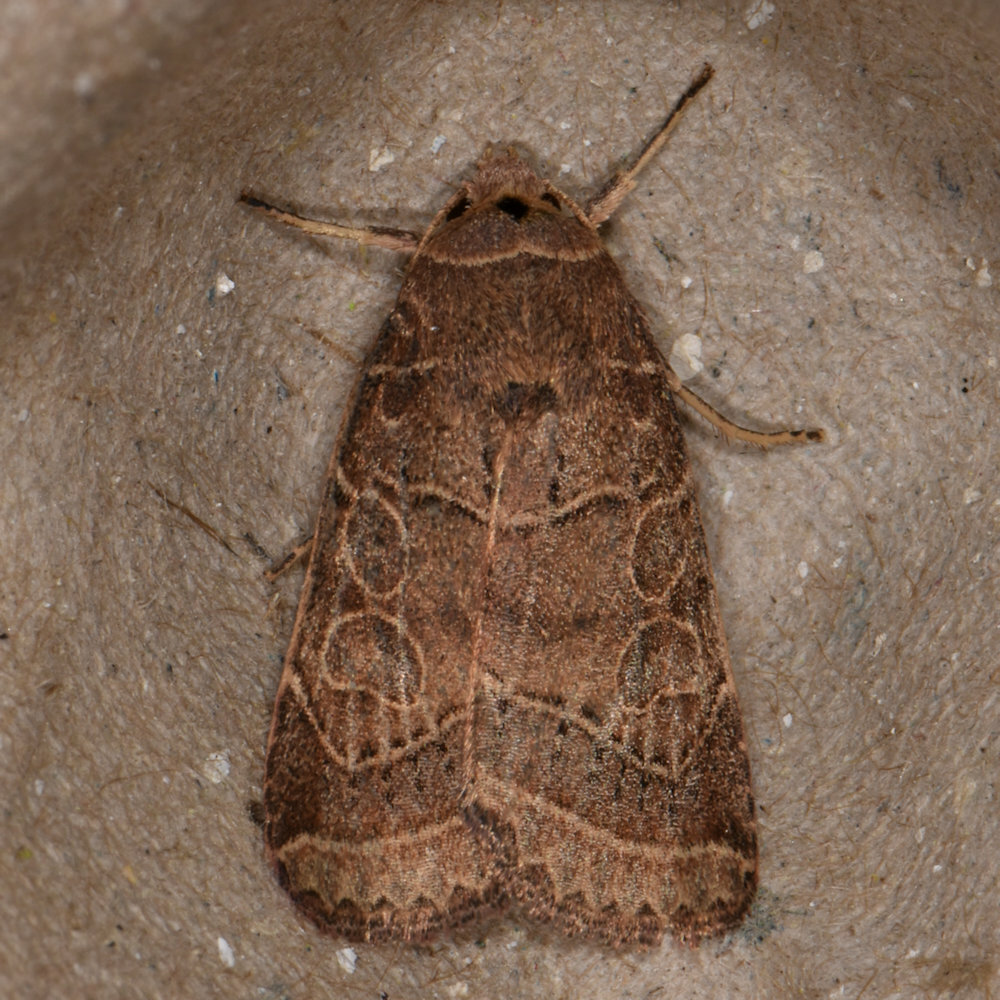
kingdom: Animalia
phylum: Arthropoda
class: Insecta
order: Lepidoptera
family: Noctuidae
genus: Orthodes
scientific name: Orthodes majuscula
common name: Rustic quaker
